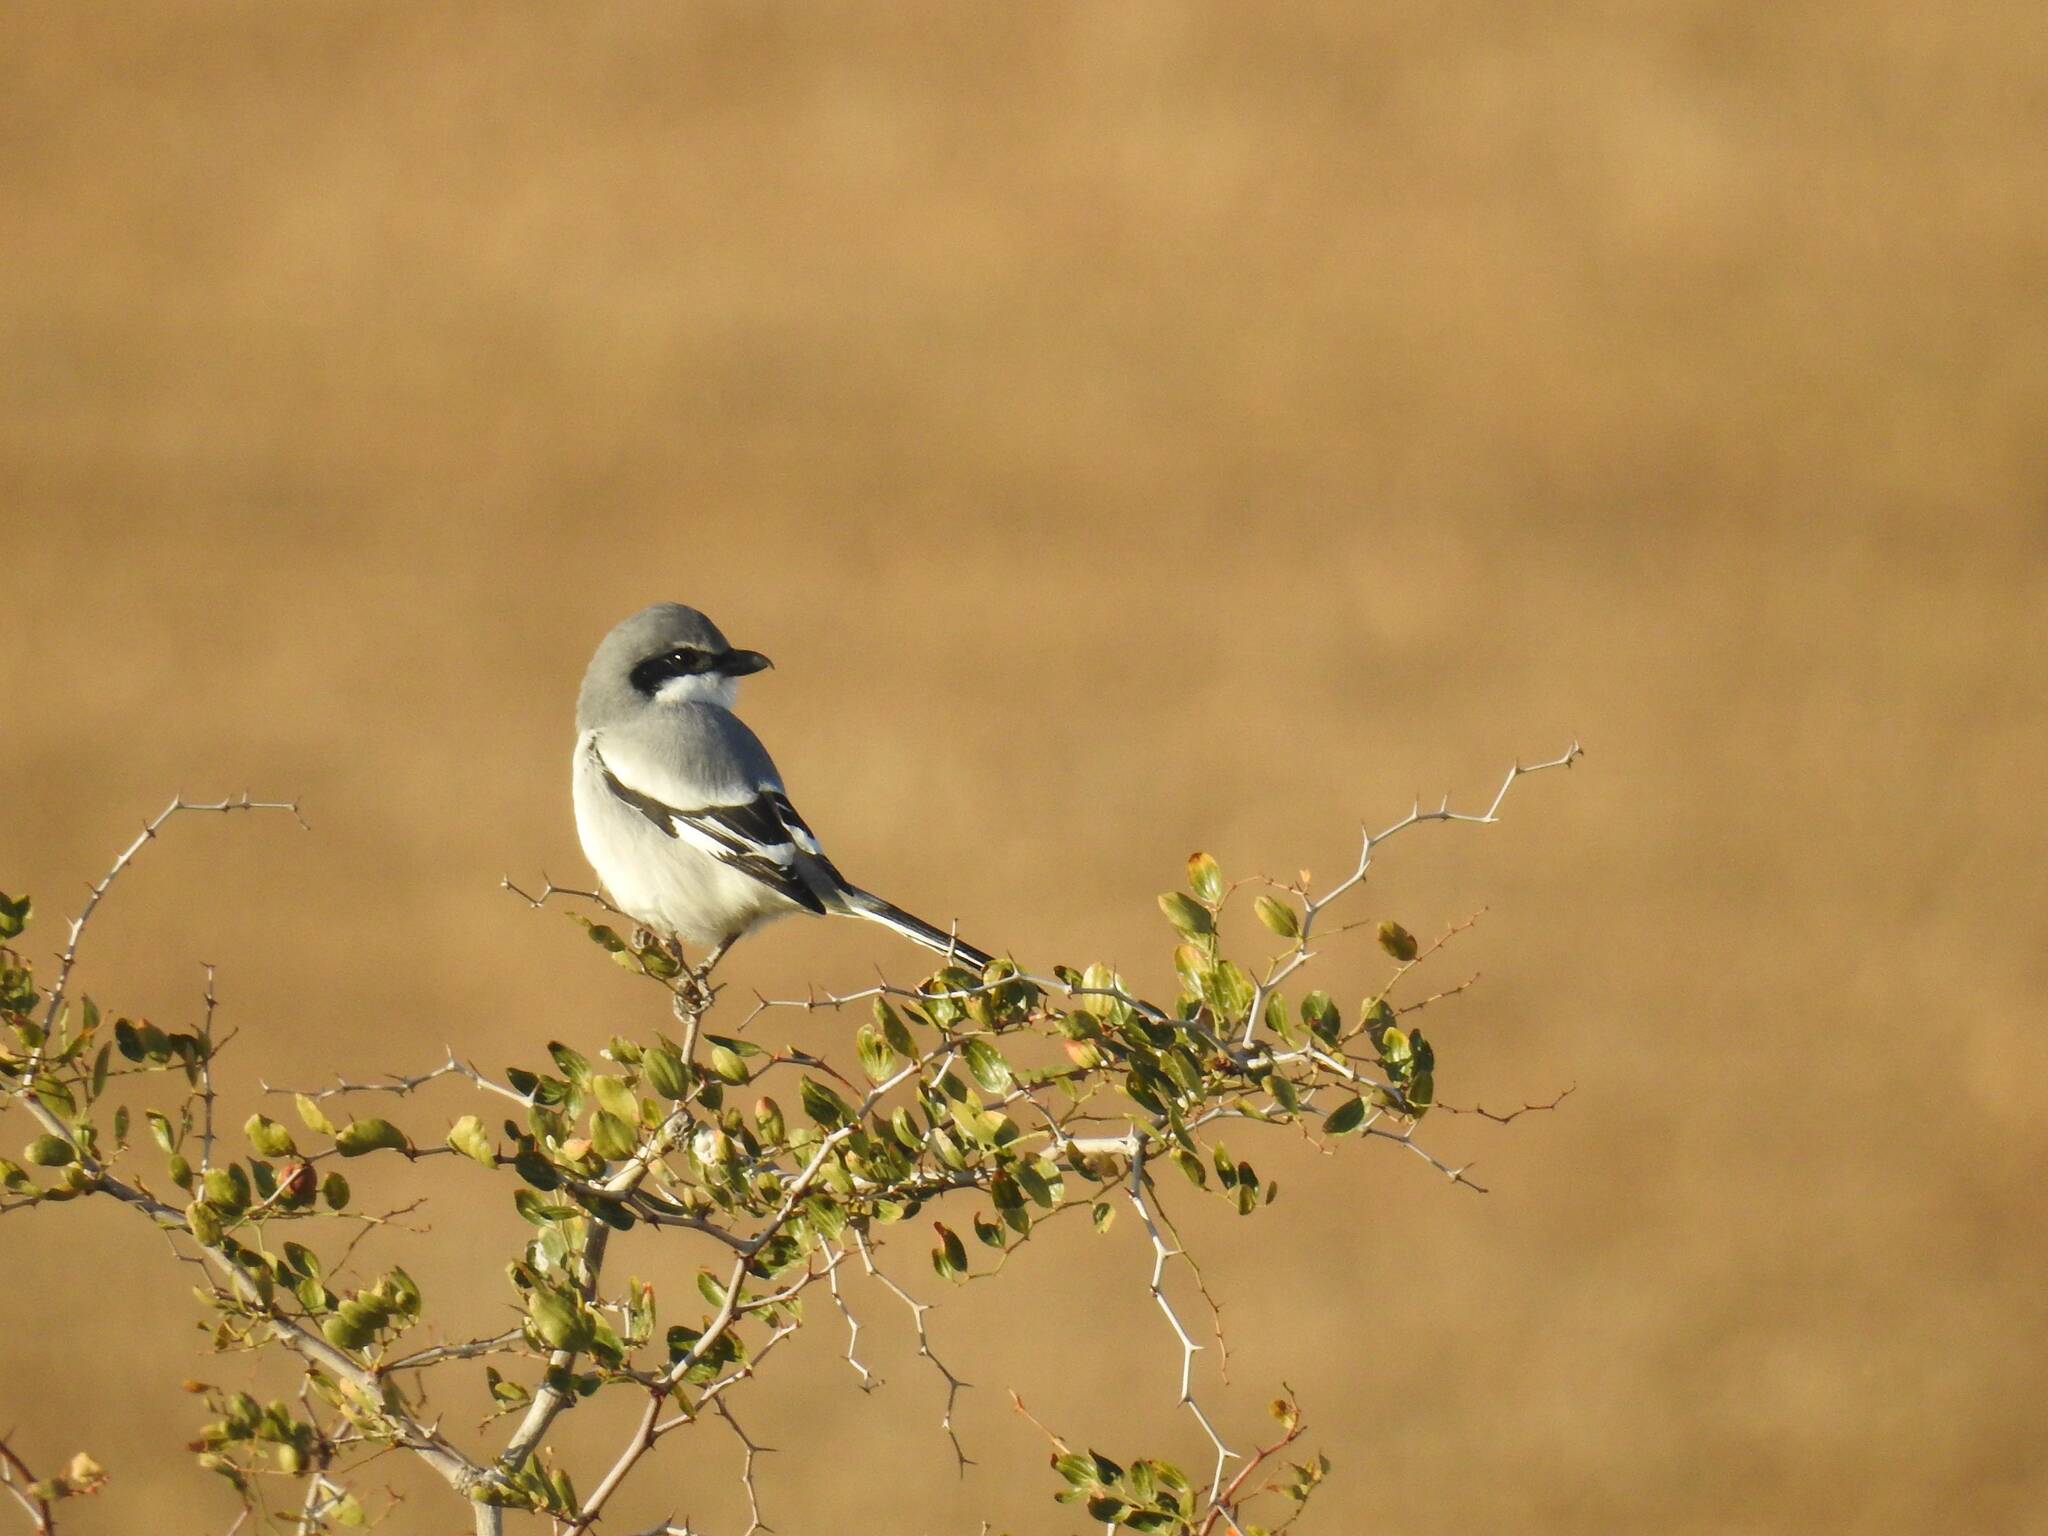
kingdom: Animalia
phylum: Chordata
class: Aves
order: Passeriformes
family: Laniidae
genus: Lanius
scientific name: Lanius excubitor
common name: Great grey shrike
